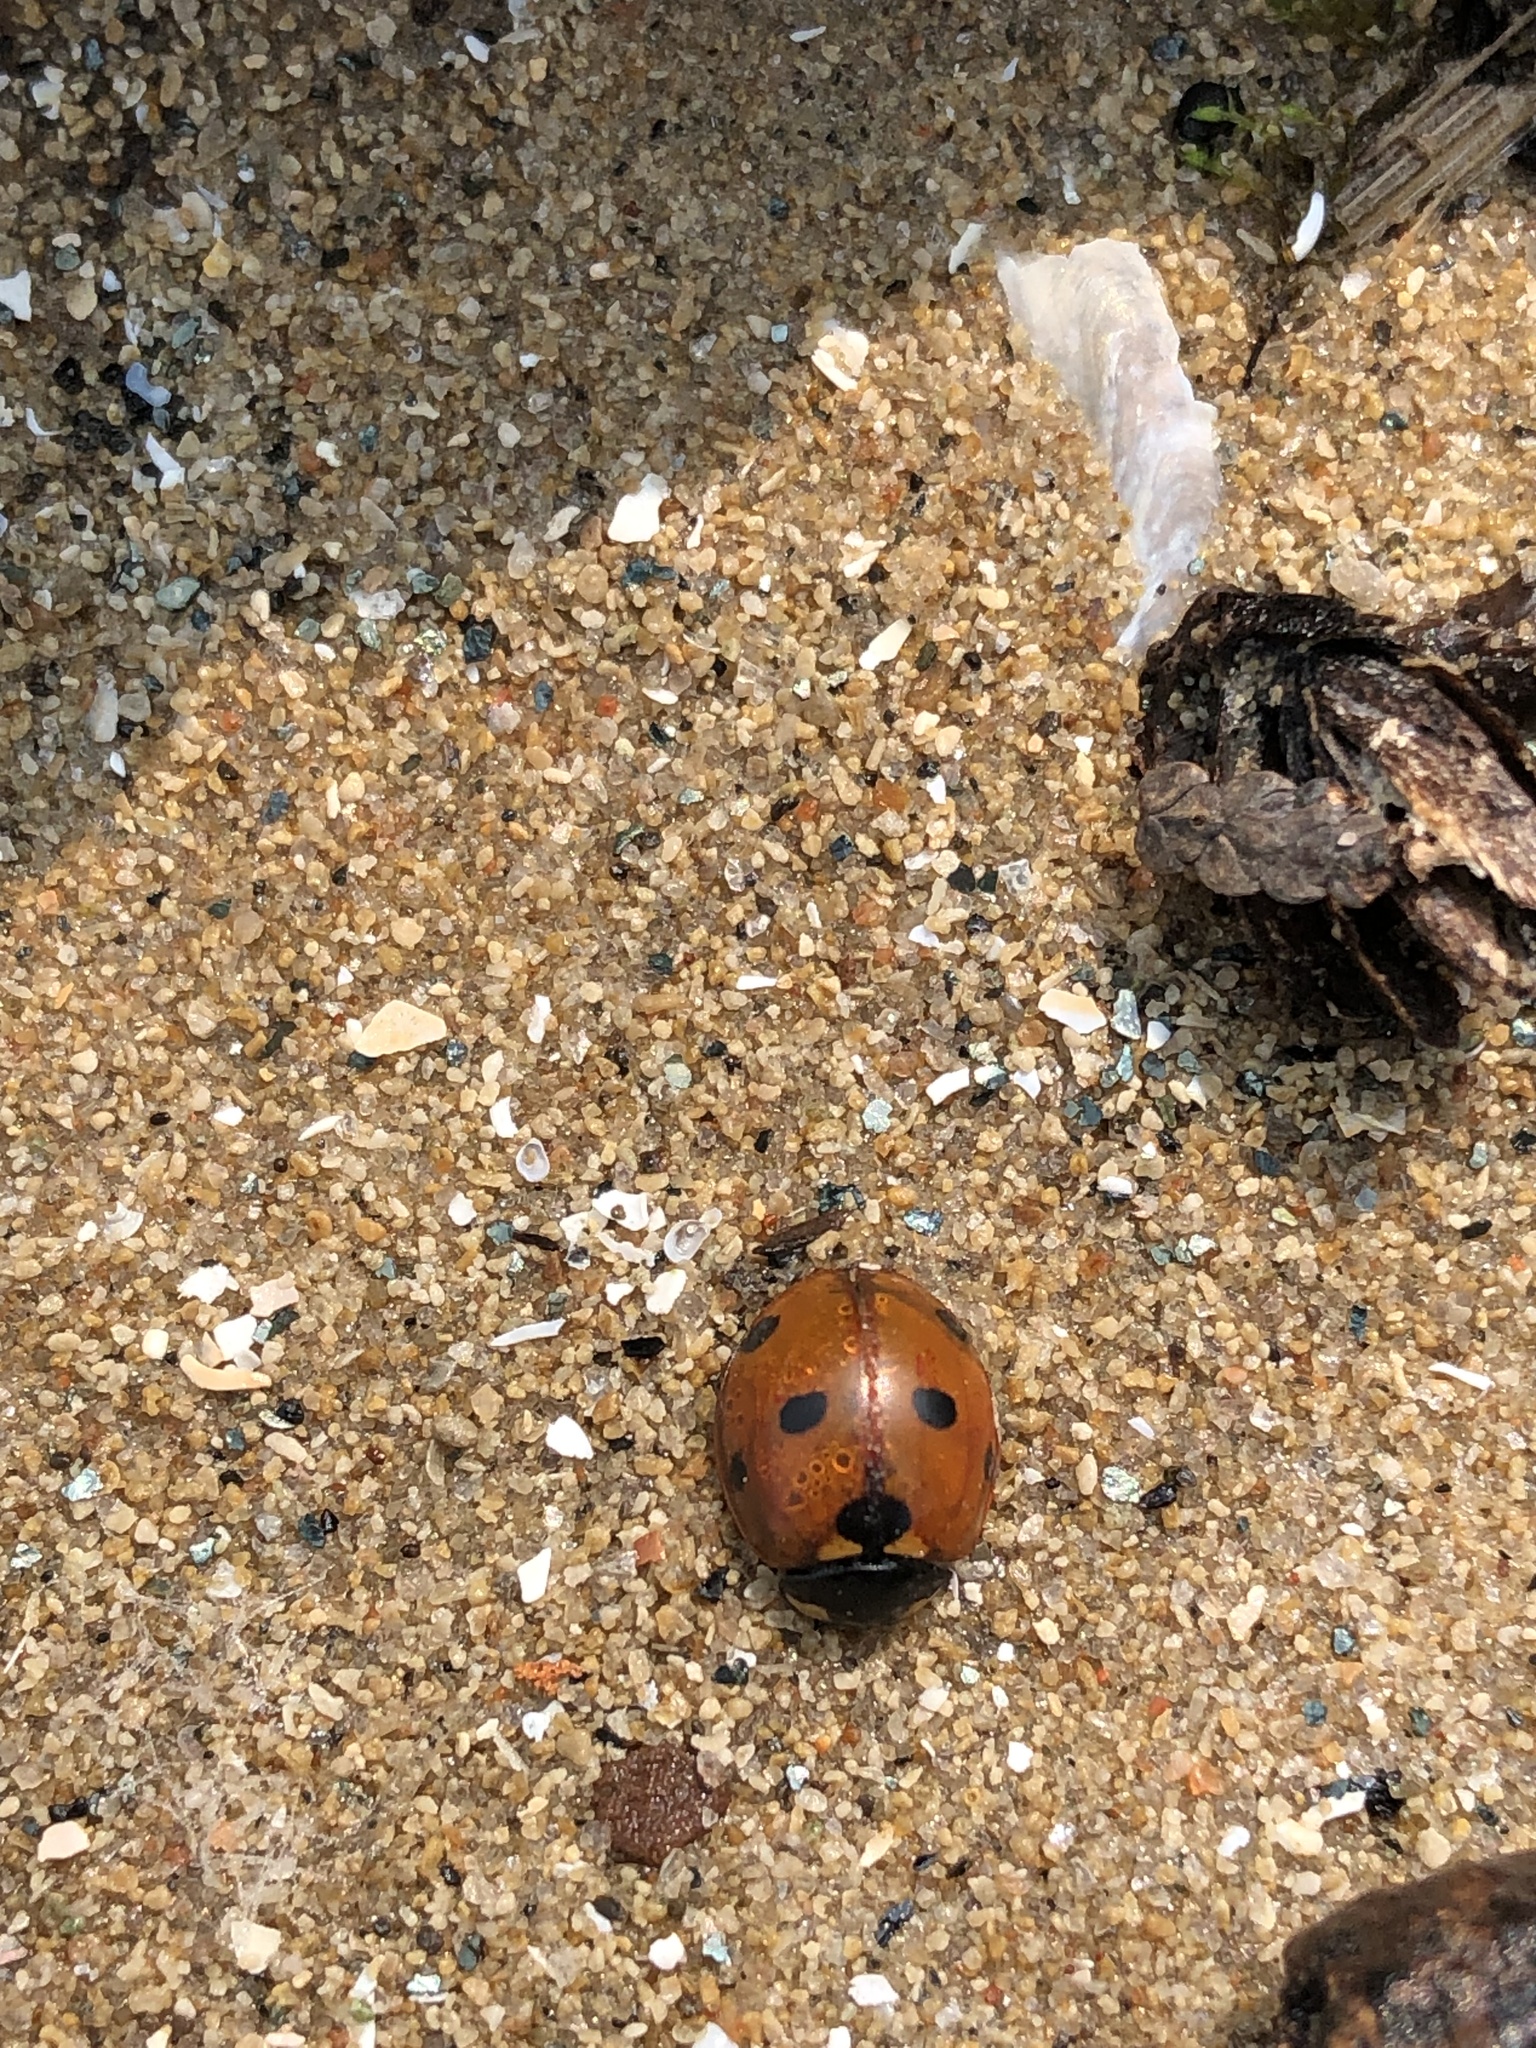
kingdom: Animalia
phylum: Arthropoda
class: Insecta
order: Coleoptera
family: Coccinellidae
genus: Coccinella
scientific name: Coccinella septempunctata
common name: Sevenspotted lady beetle
